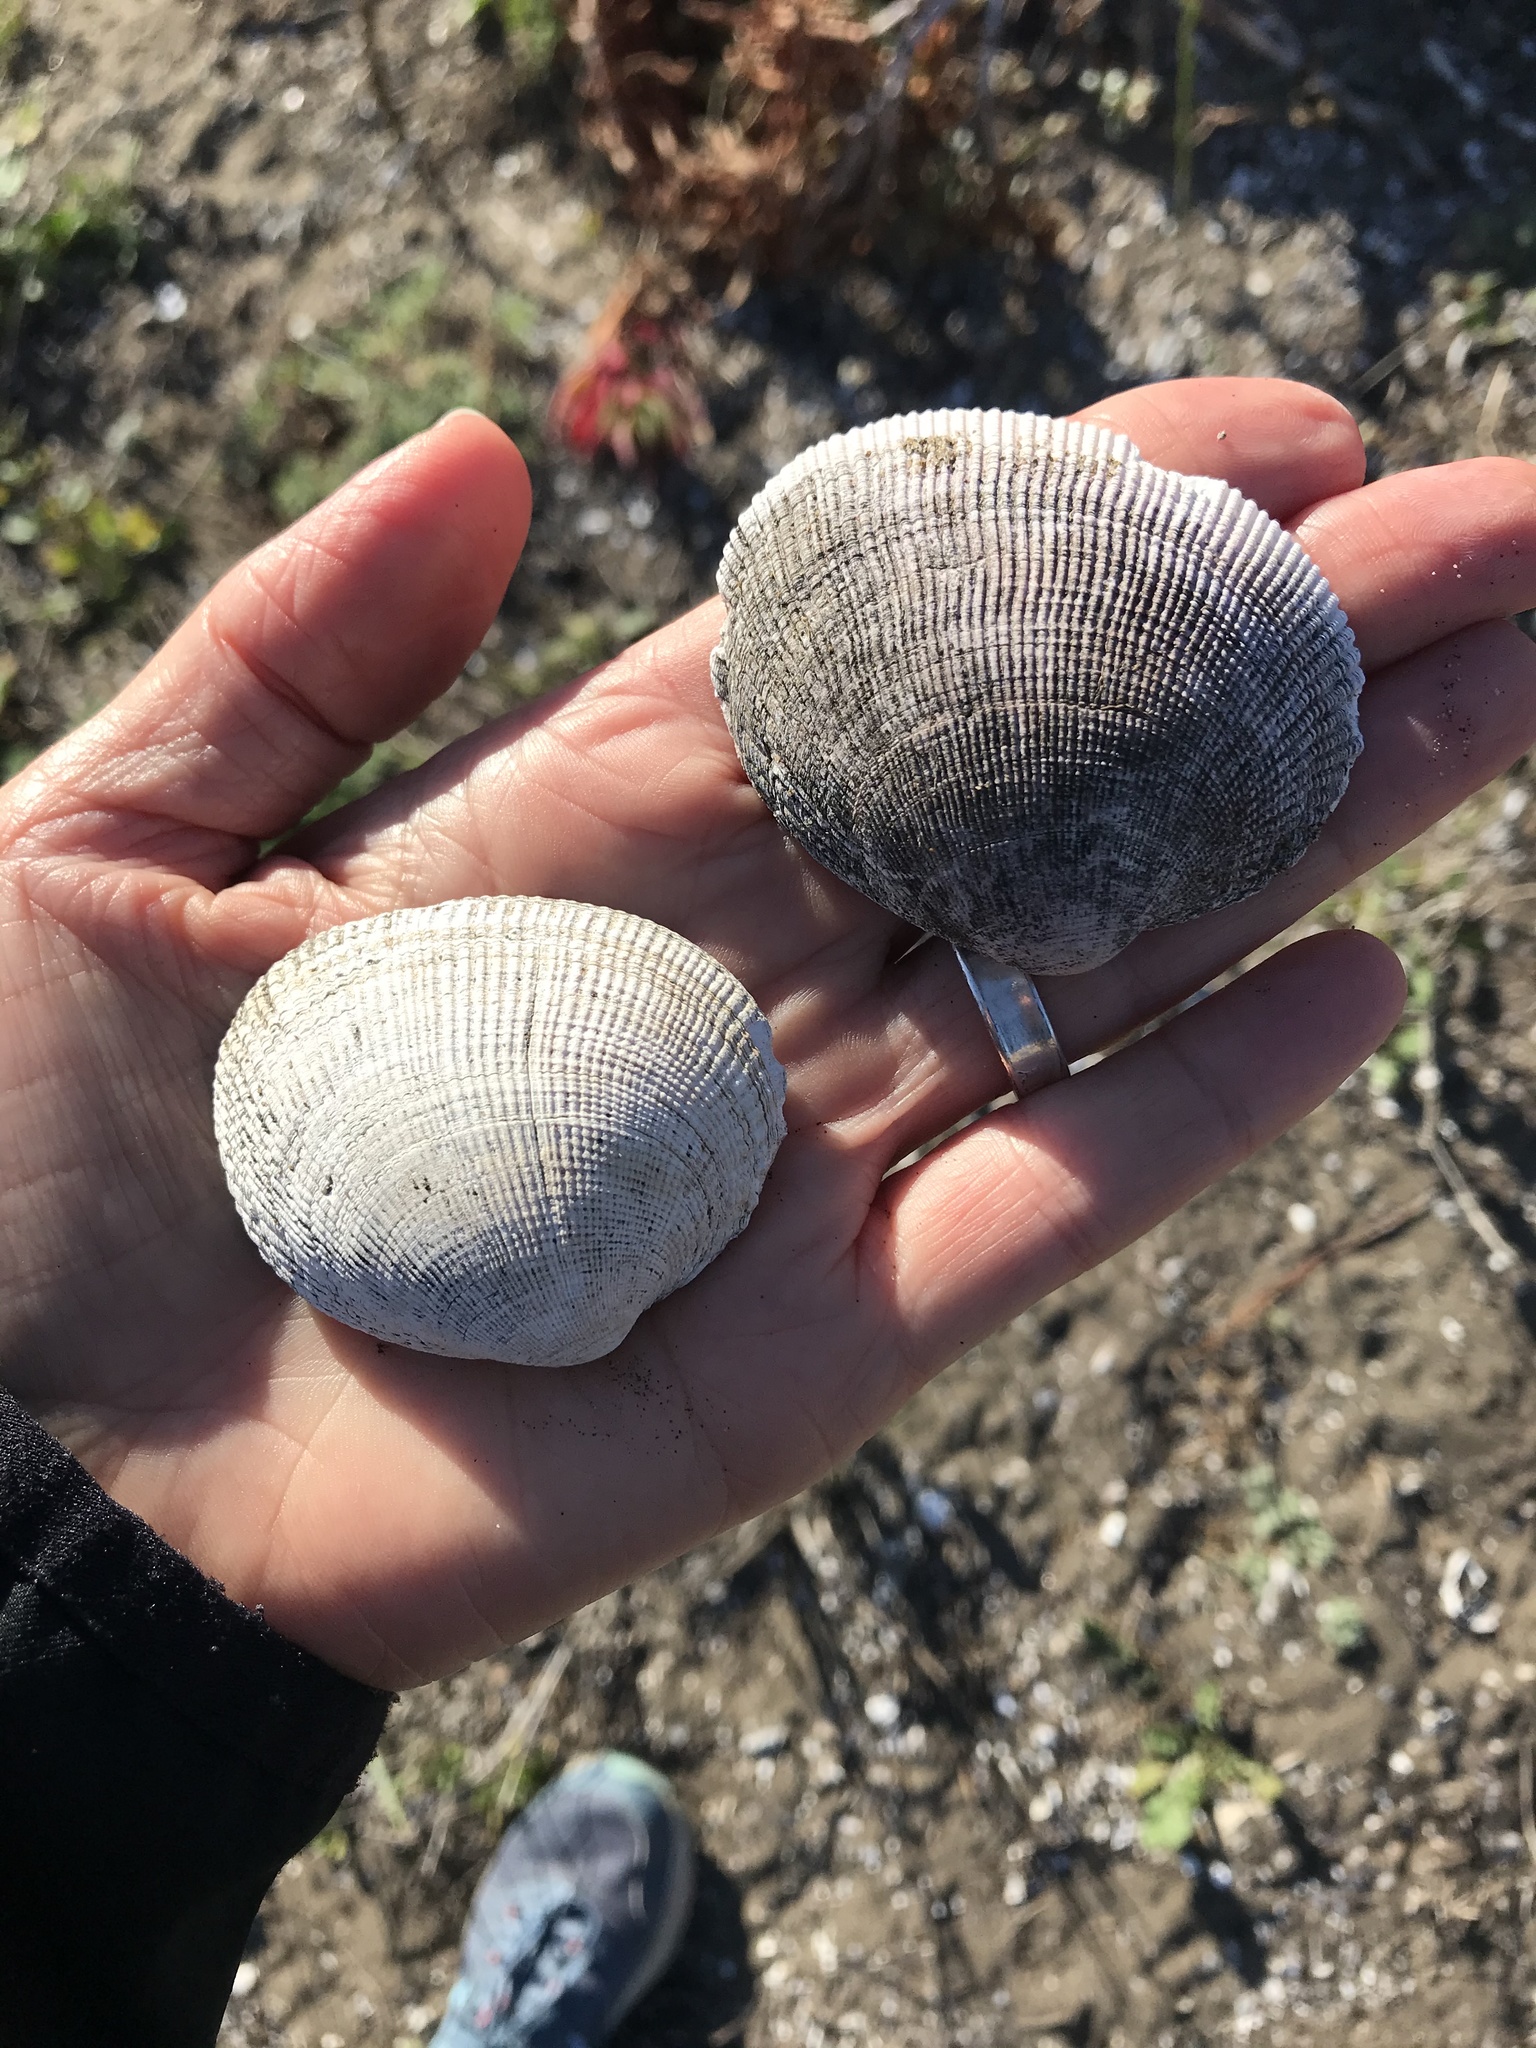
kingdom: Animalia
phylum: Mollusca
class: Bivalvia
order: Venerida
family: Veneridae
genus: Leukoma
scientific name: Leukoma staminea
